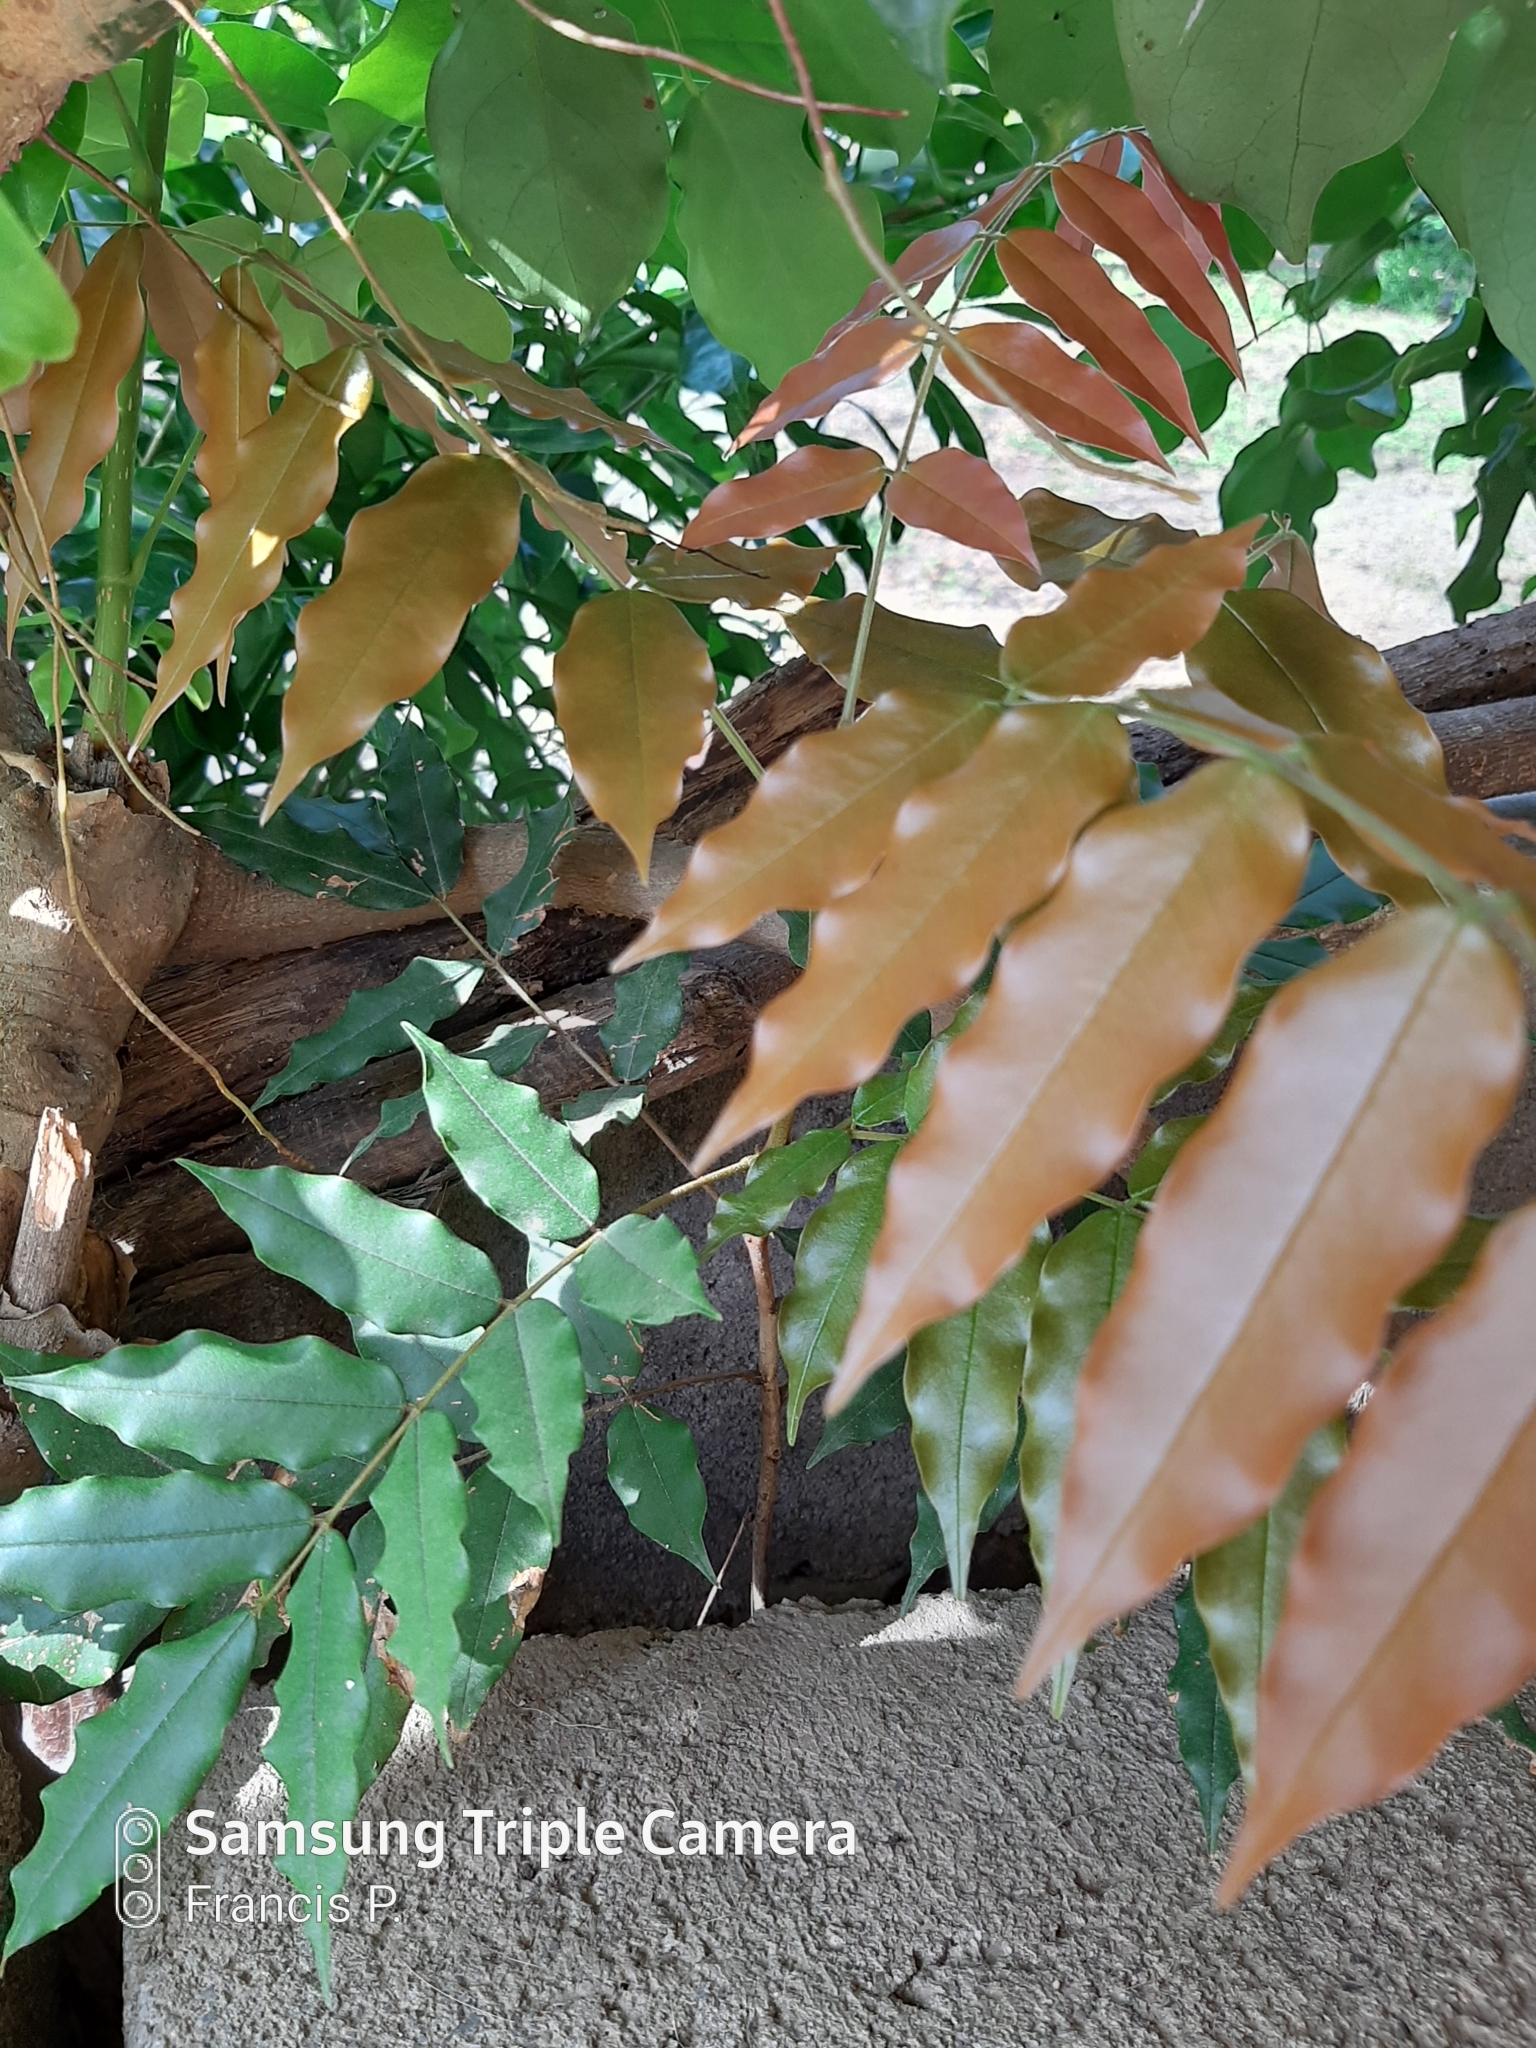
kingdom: Plantae
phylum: Tracheophyta
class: Magnoliopsida
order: Fabales
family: Fabaceae
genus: Andira
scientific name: Andira inermis
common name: Angelin
